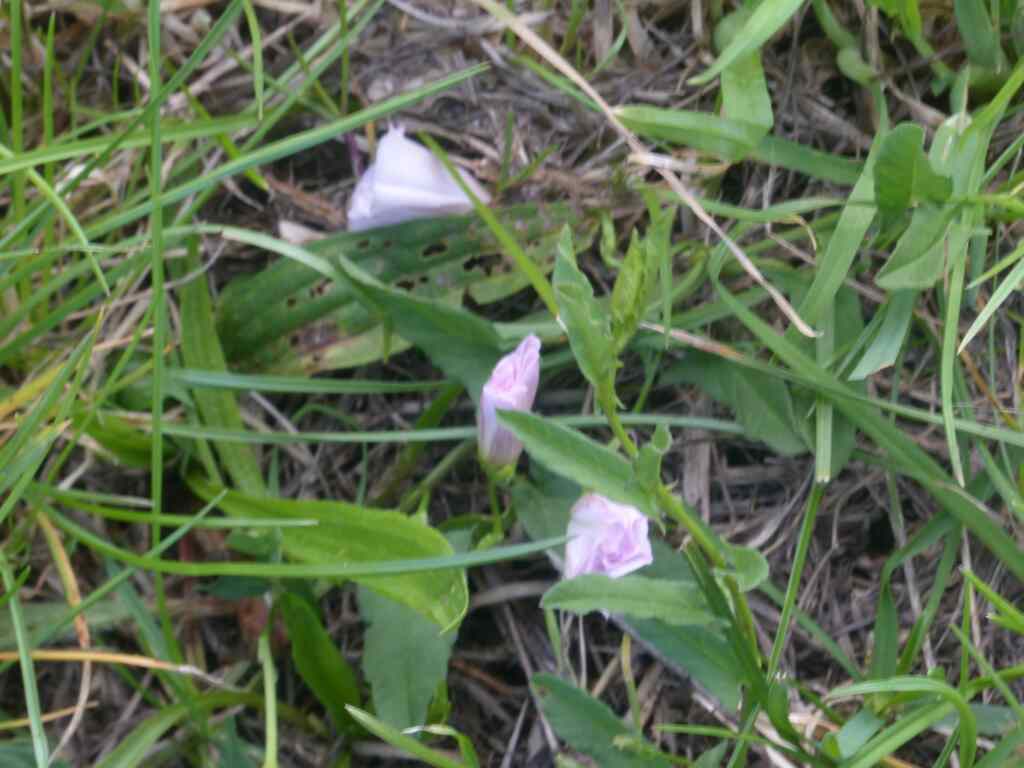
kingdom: Plantae
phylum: Tracheophyta
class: Magnoliopsida
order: Solanales
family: Convolvulaceae
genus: Convolvulus
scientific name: Convolvulus arvensis
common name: Field bindweed
